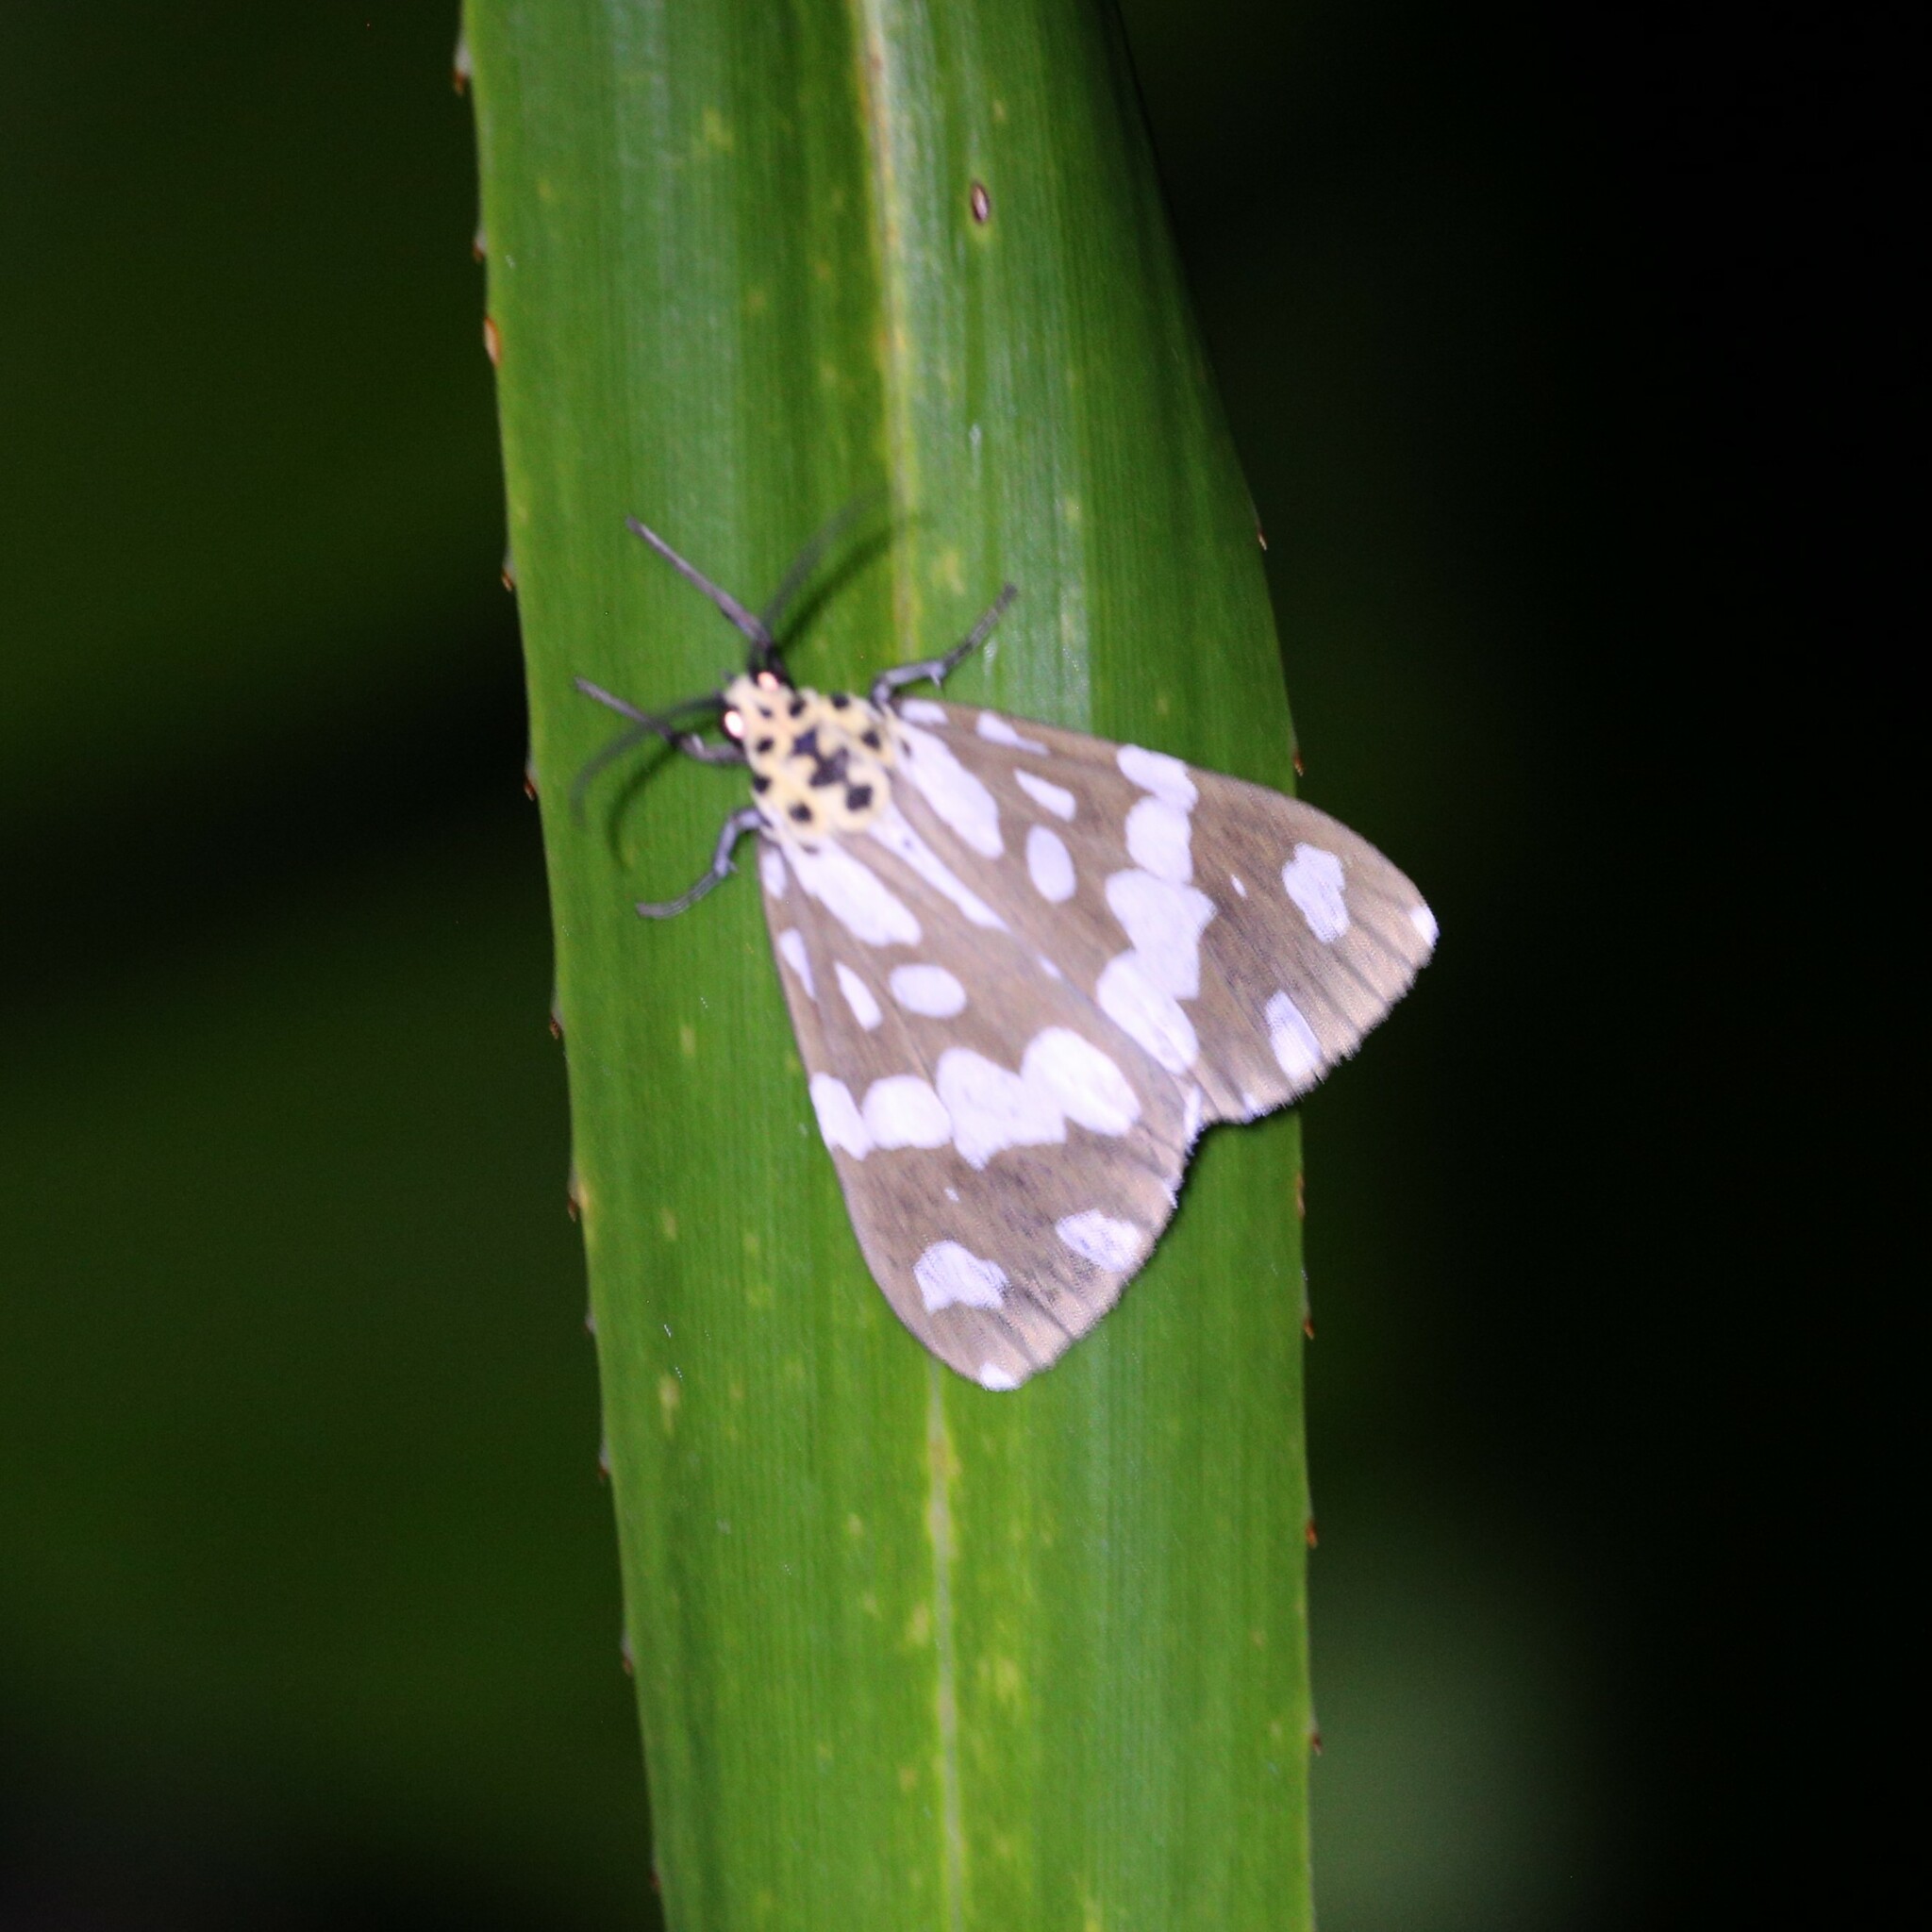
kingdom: Animalia
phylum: Arthropoda
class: Insecta
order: Lepidoptera
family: Erebidae
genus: Utetheisa
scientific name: Utetheisa inconstans
